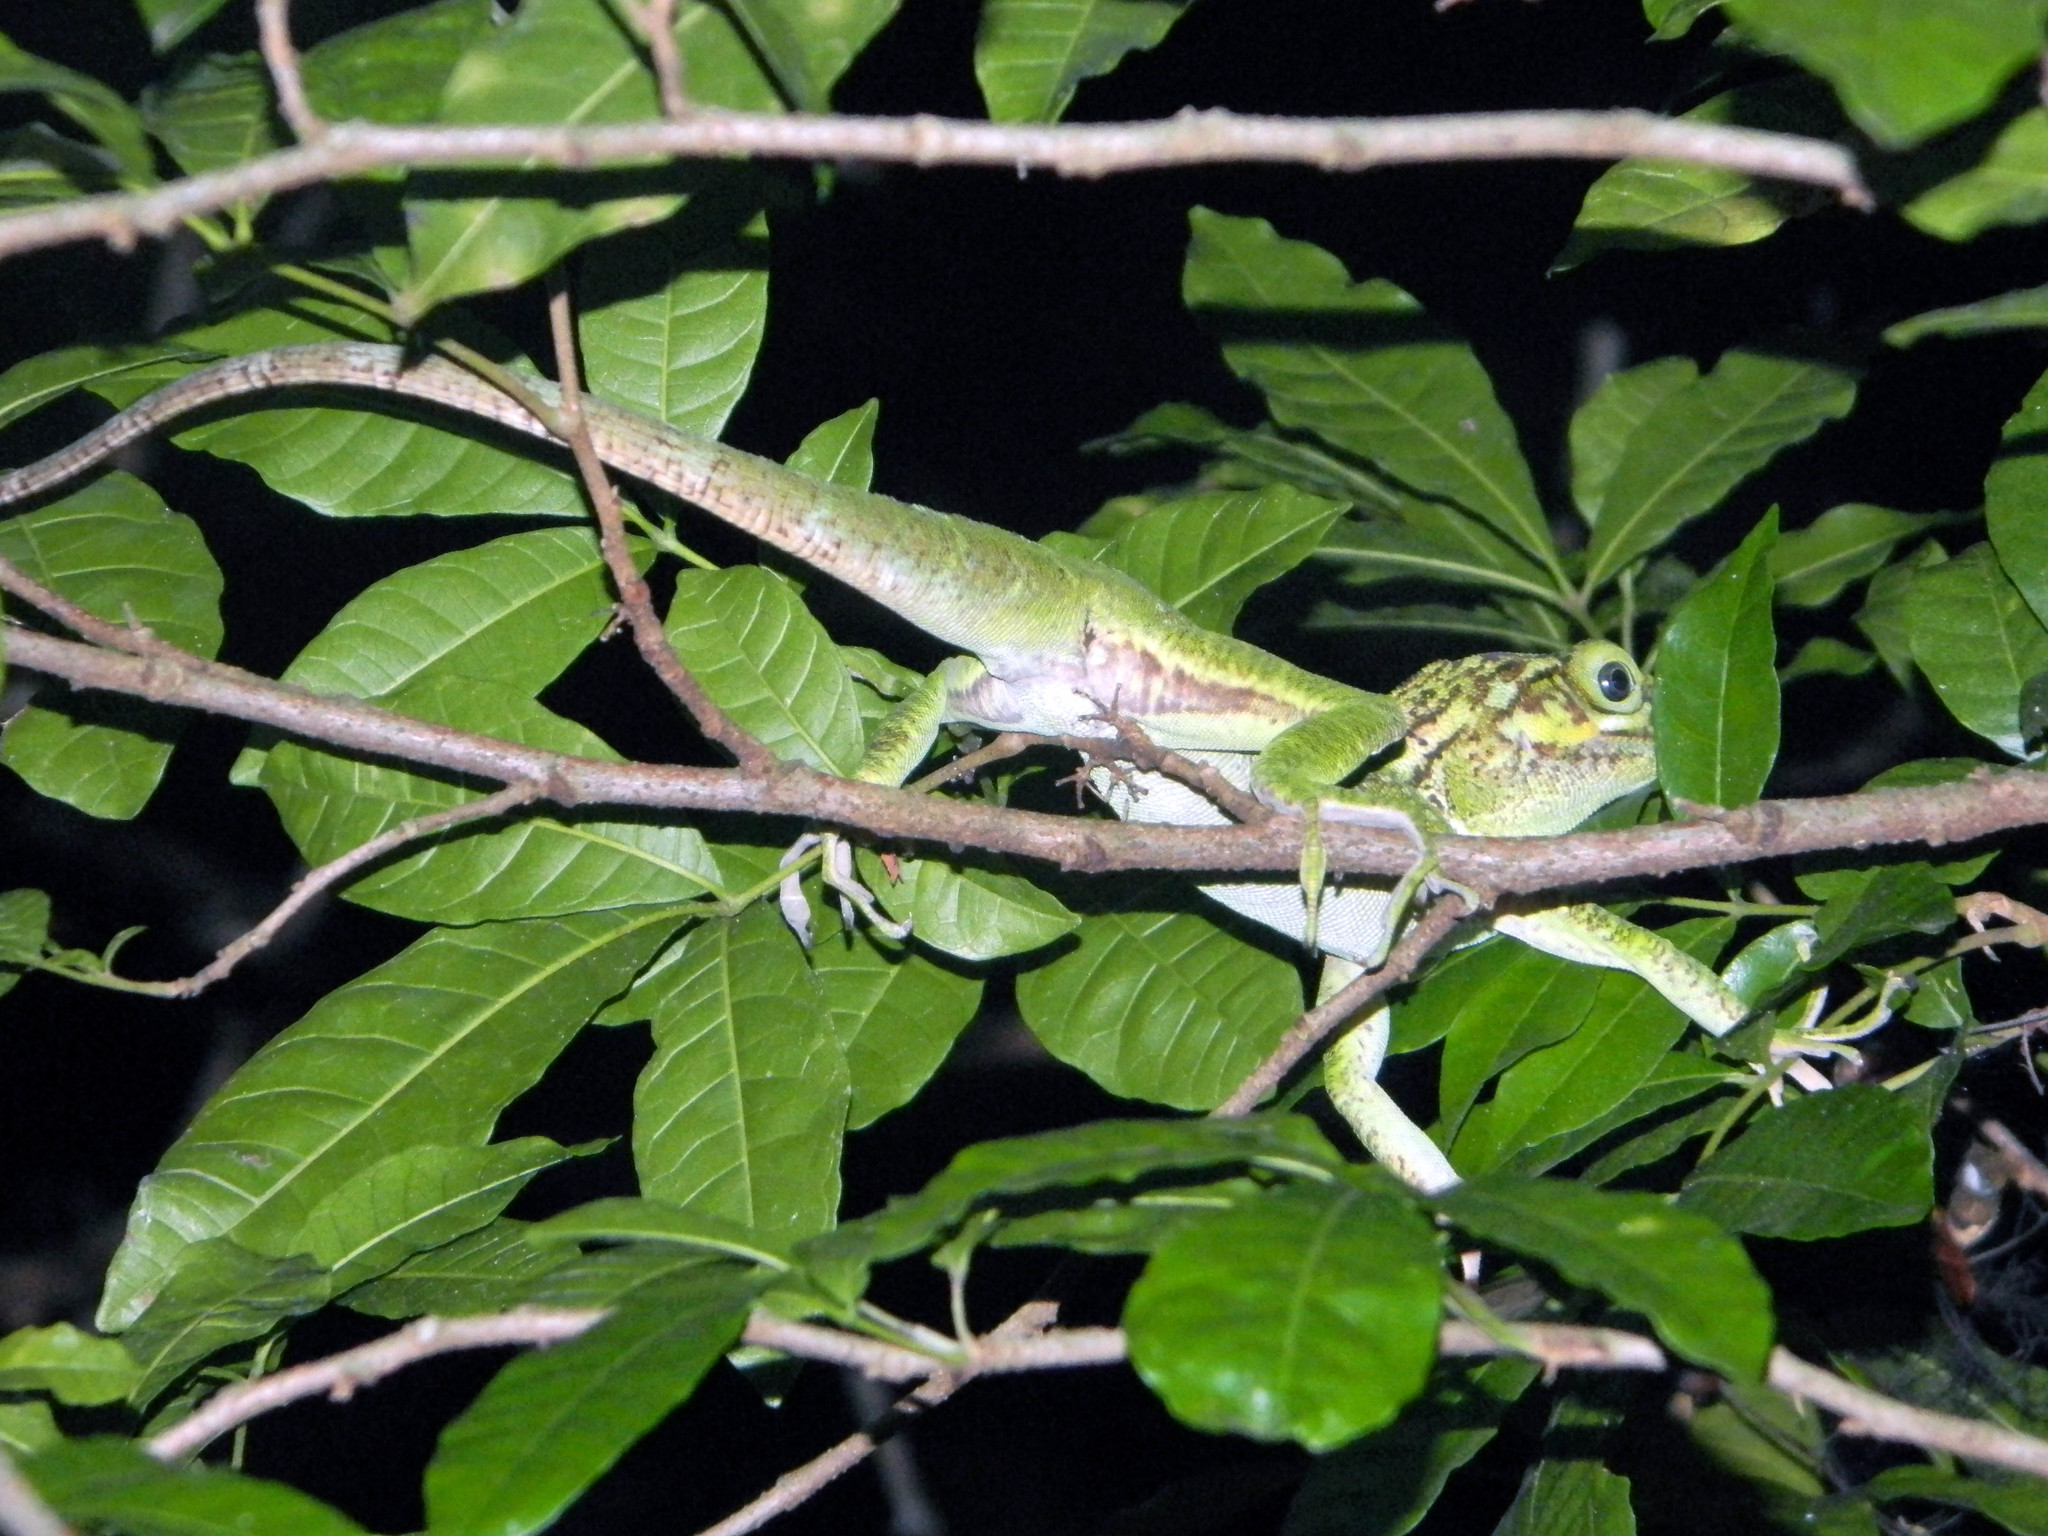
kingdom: Animalia
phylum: Chordata
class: Squamata
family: Dactyloidae
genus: Anolis
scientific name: Anolis ricordii
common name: Haitian green anole
